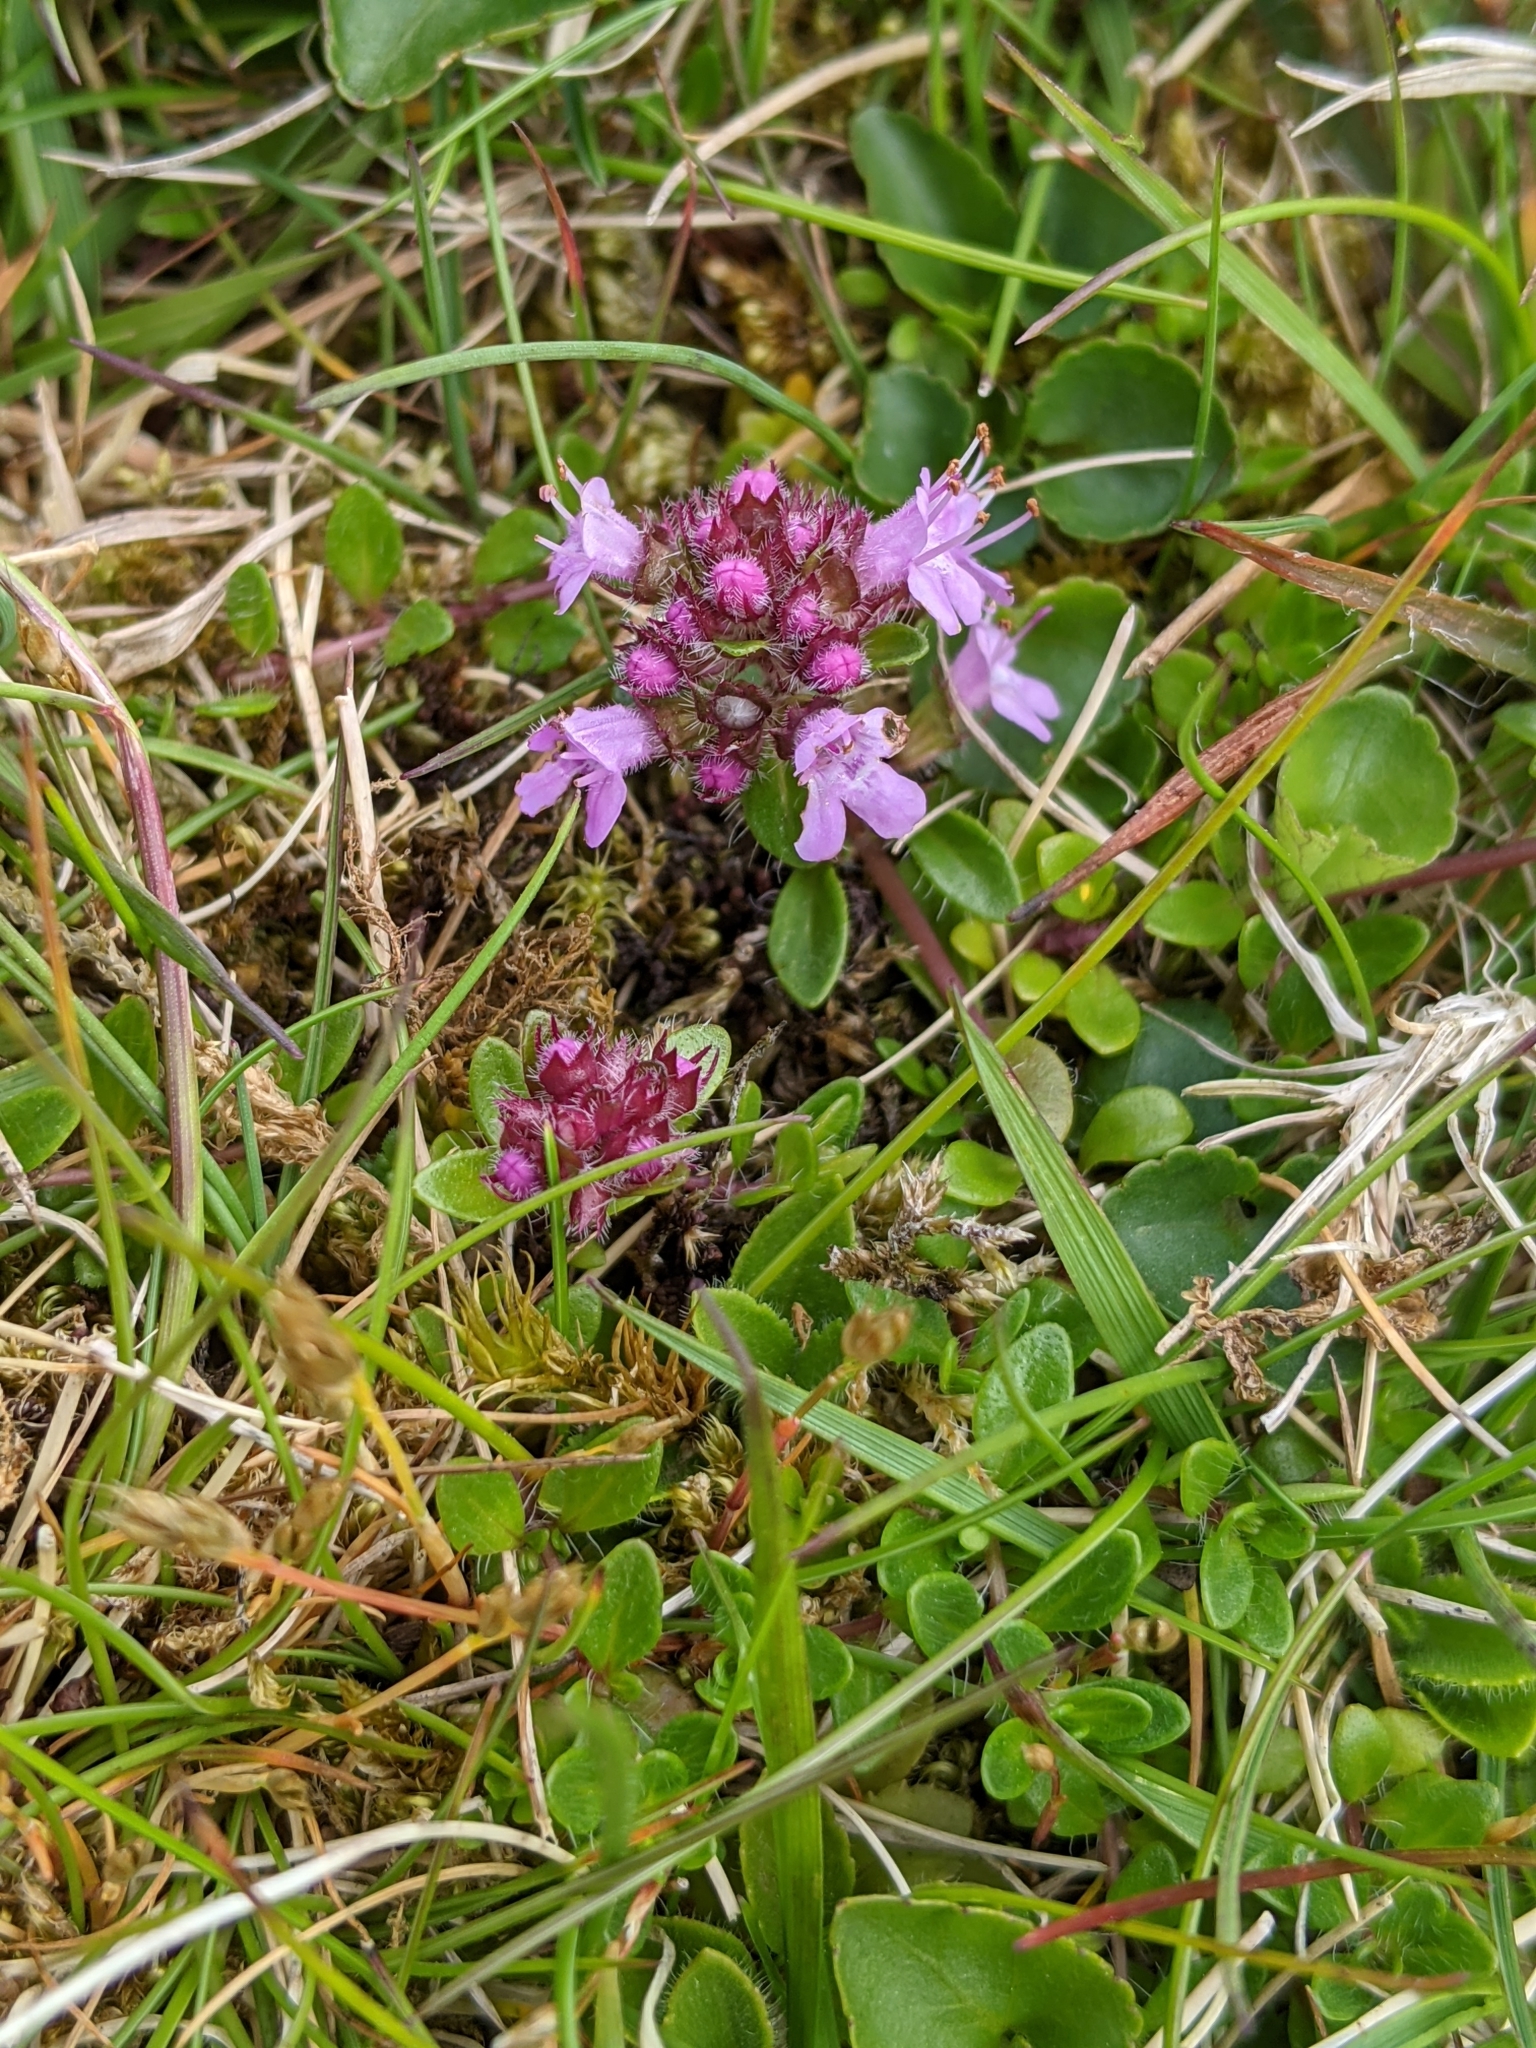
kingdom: Plantae
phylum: Tracheophyta
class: Magnoliopsida
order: Lamiales
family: Lamiaceae
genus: Thymus
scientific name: Thymus praecox
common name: Wild thyme
